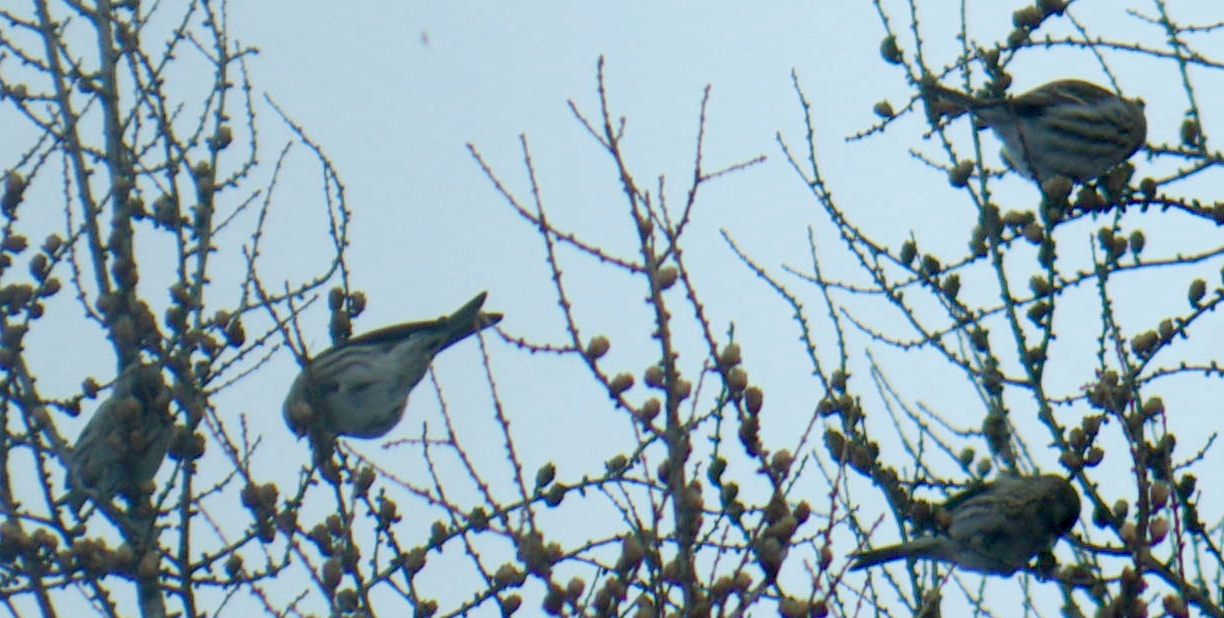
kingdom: Animalia
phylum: Chordata
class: Aves
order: Passeriformes
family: Fringillidae
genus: Acanthis
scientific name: Acanthis flammea
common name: Common redpoll
